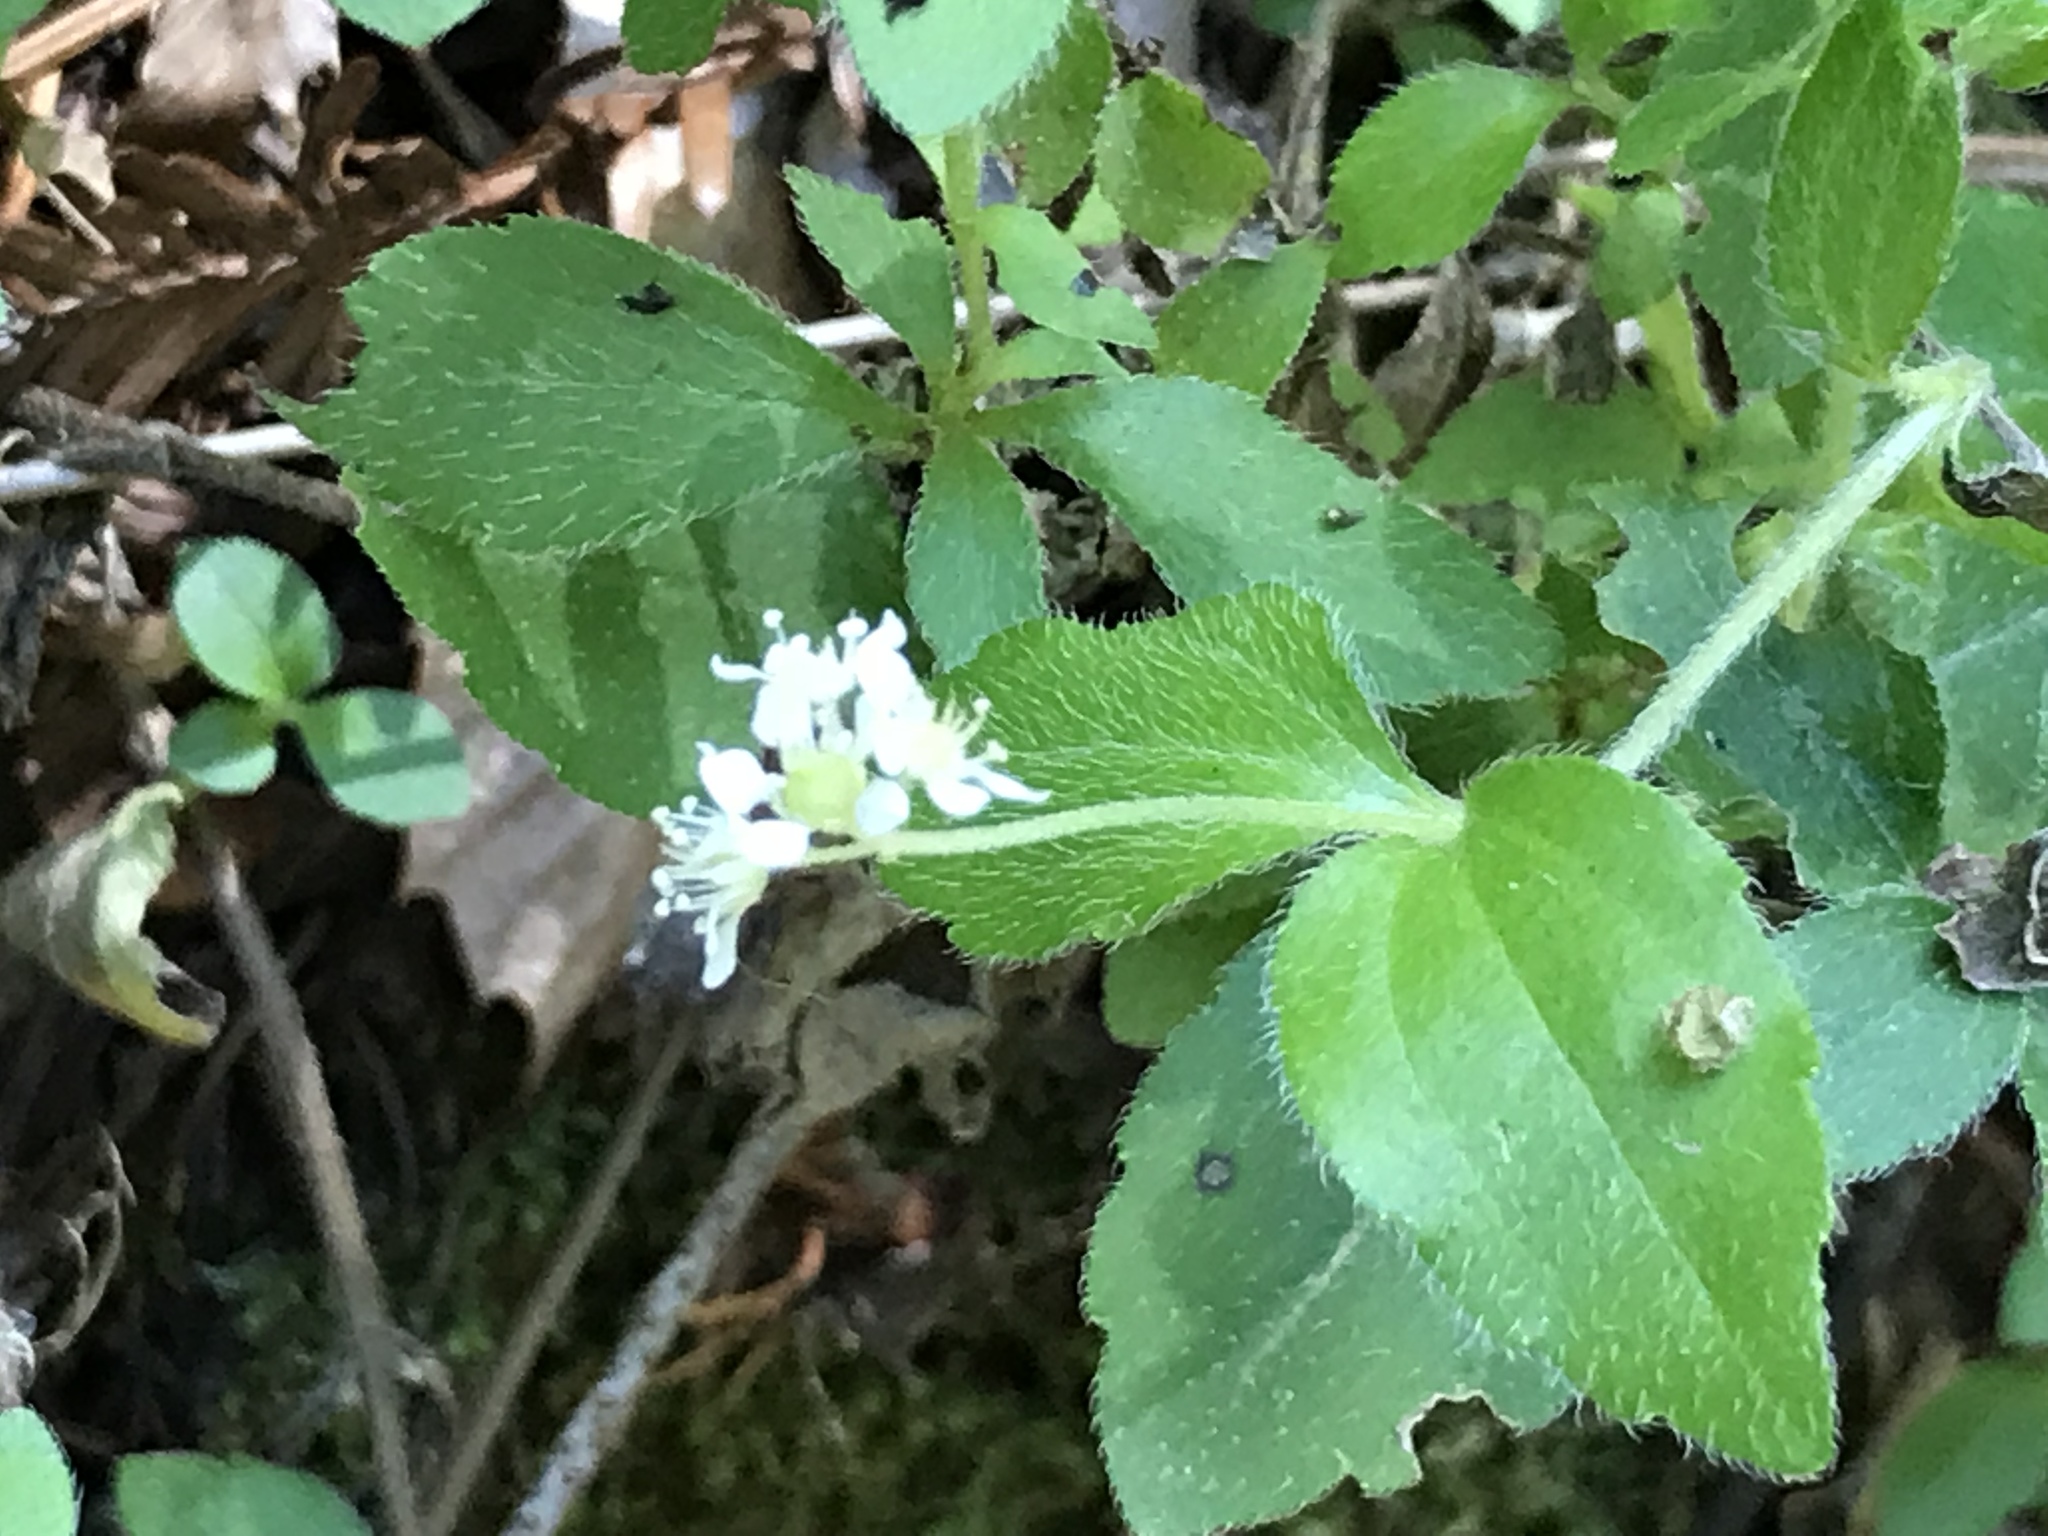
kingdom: Plantae
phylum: Tracheophyta
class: Magnoliopsida
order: Cornales
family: Hydrangeaceae
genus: Whipplea
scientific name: Whipplea modesta
